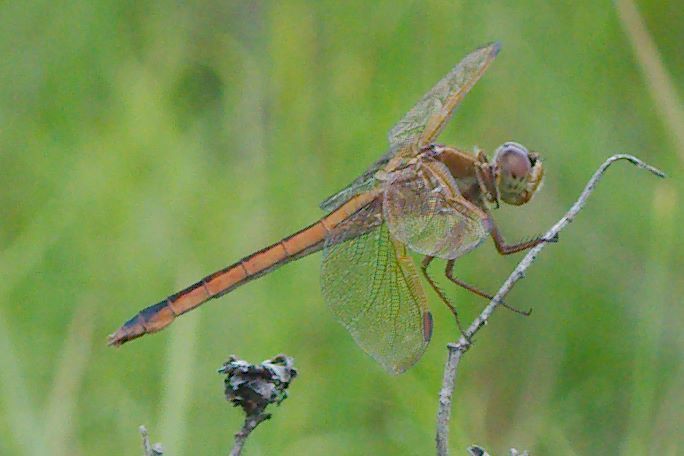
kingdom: Animalia
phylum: Arthropoda
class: Insecta
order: Odonata
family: Libellulidae
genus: Libellula
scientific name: Libellula auripennis
